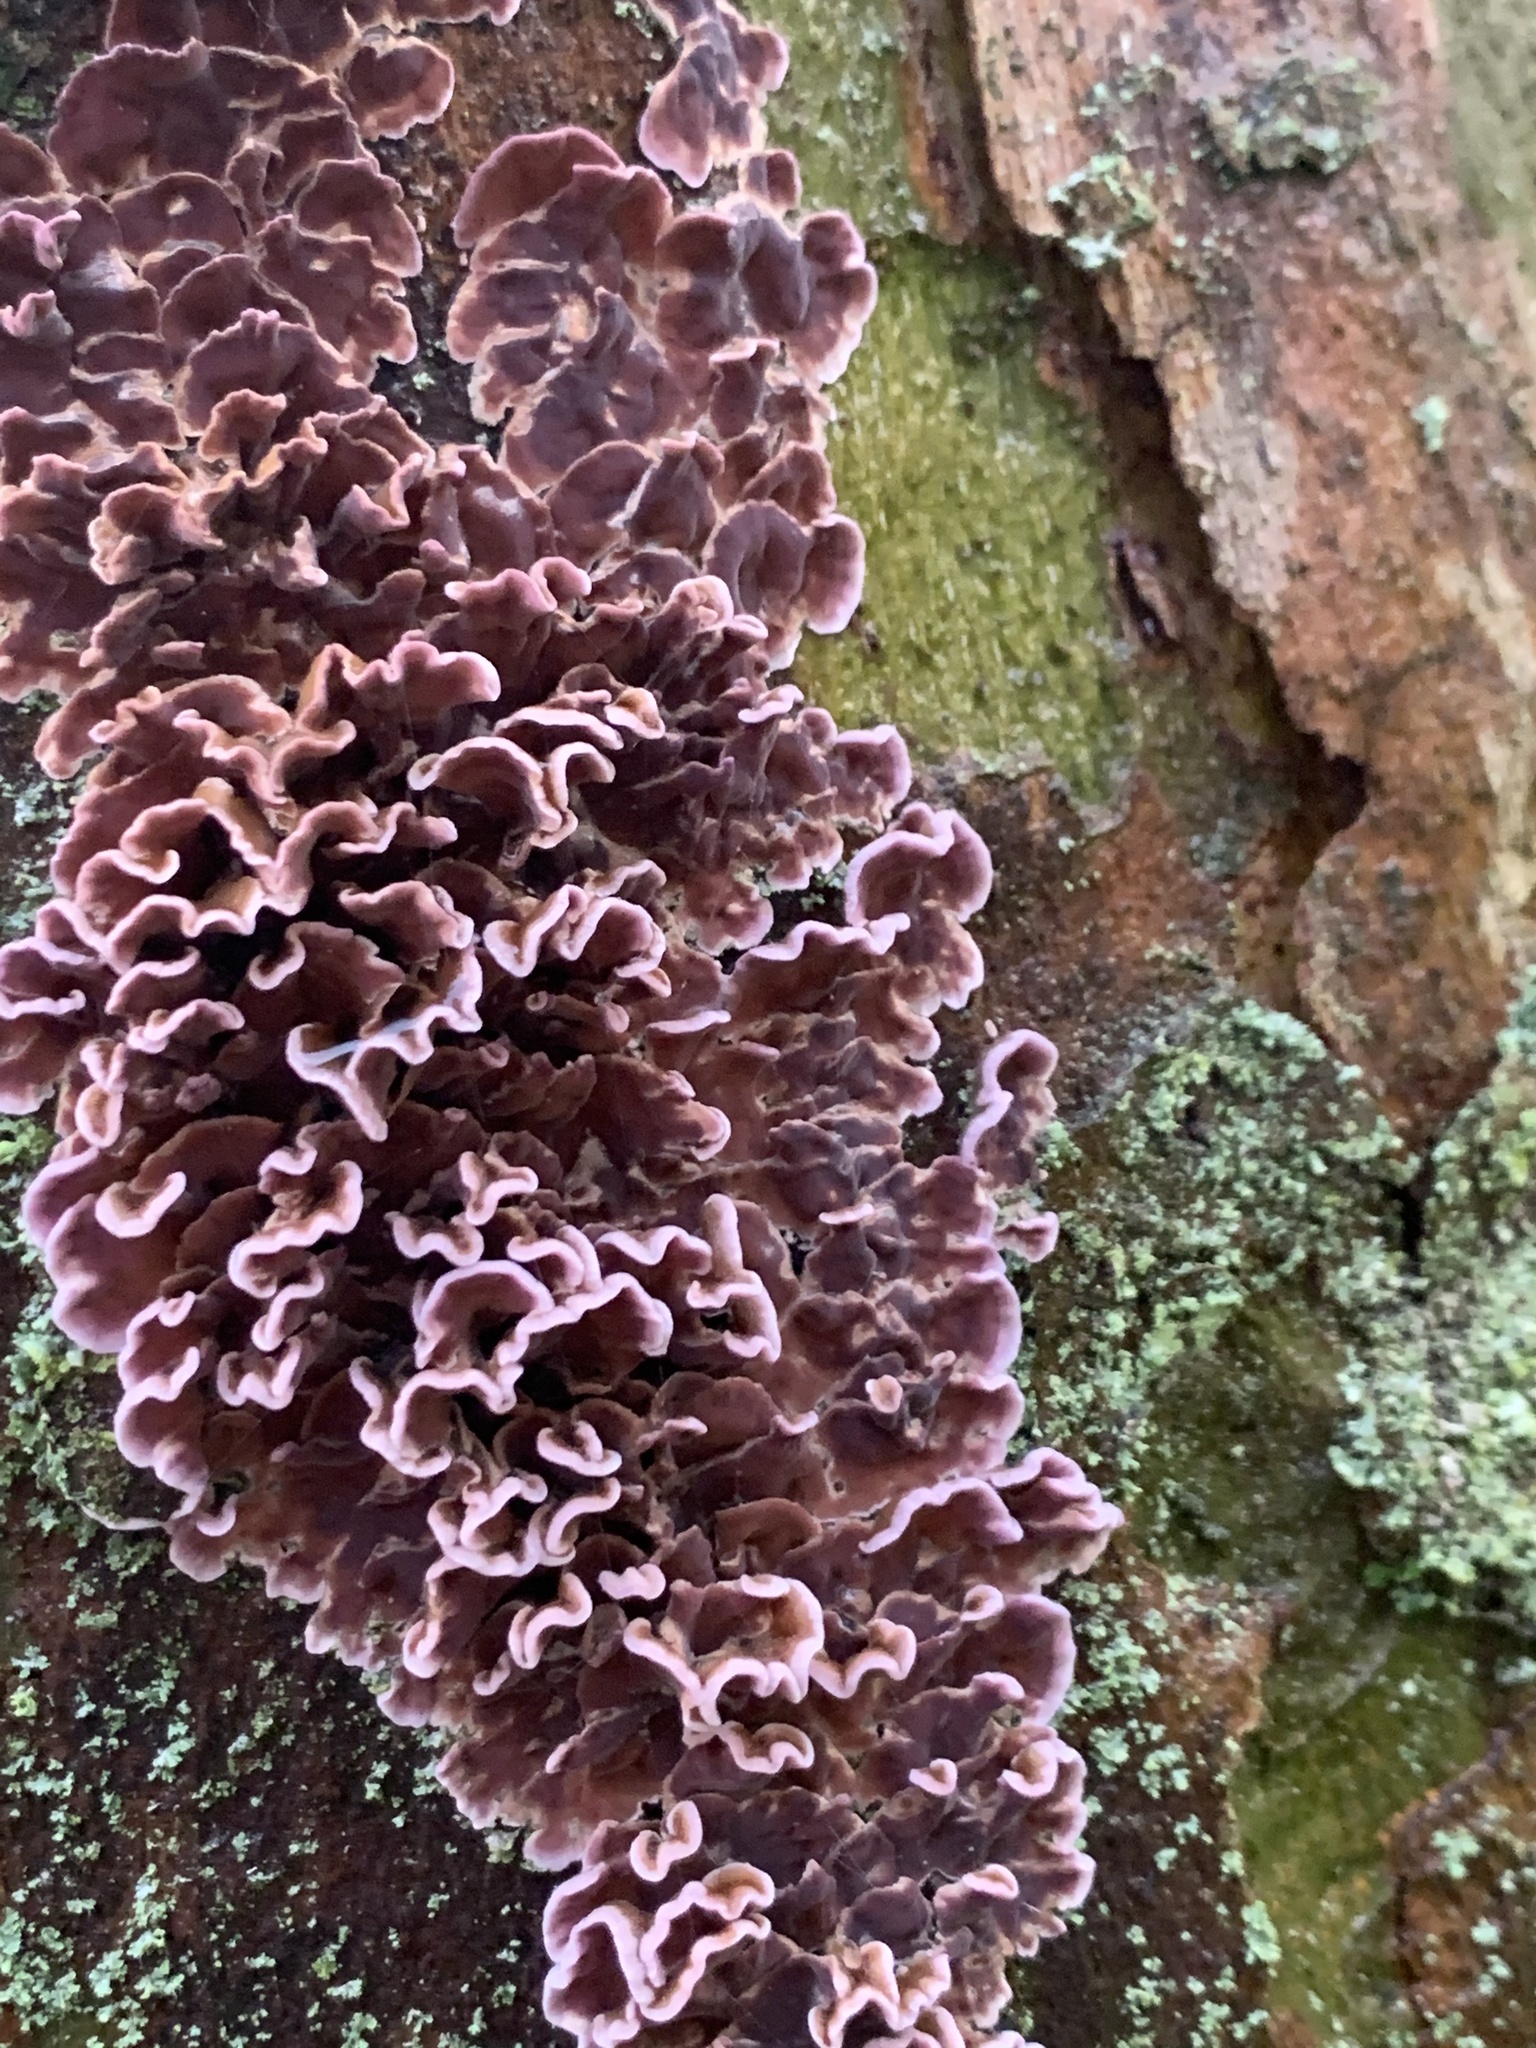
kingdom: Fungi
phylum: Basidiomycota
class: Agaricomycetes
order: Agaricales
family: Cyphellaceae
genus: Chondrostereum
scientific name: Chondrostereum purpureum
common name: Silver leaf disease
